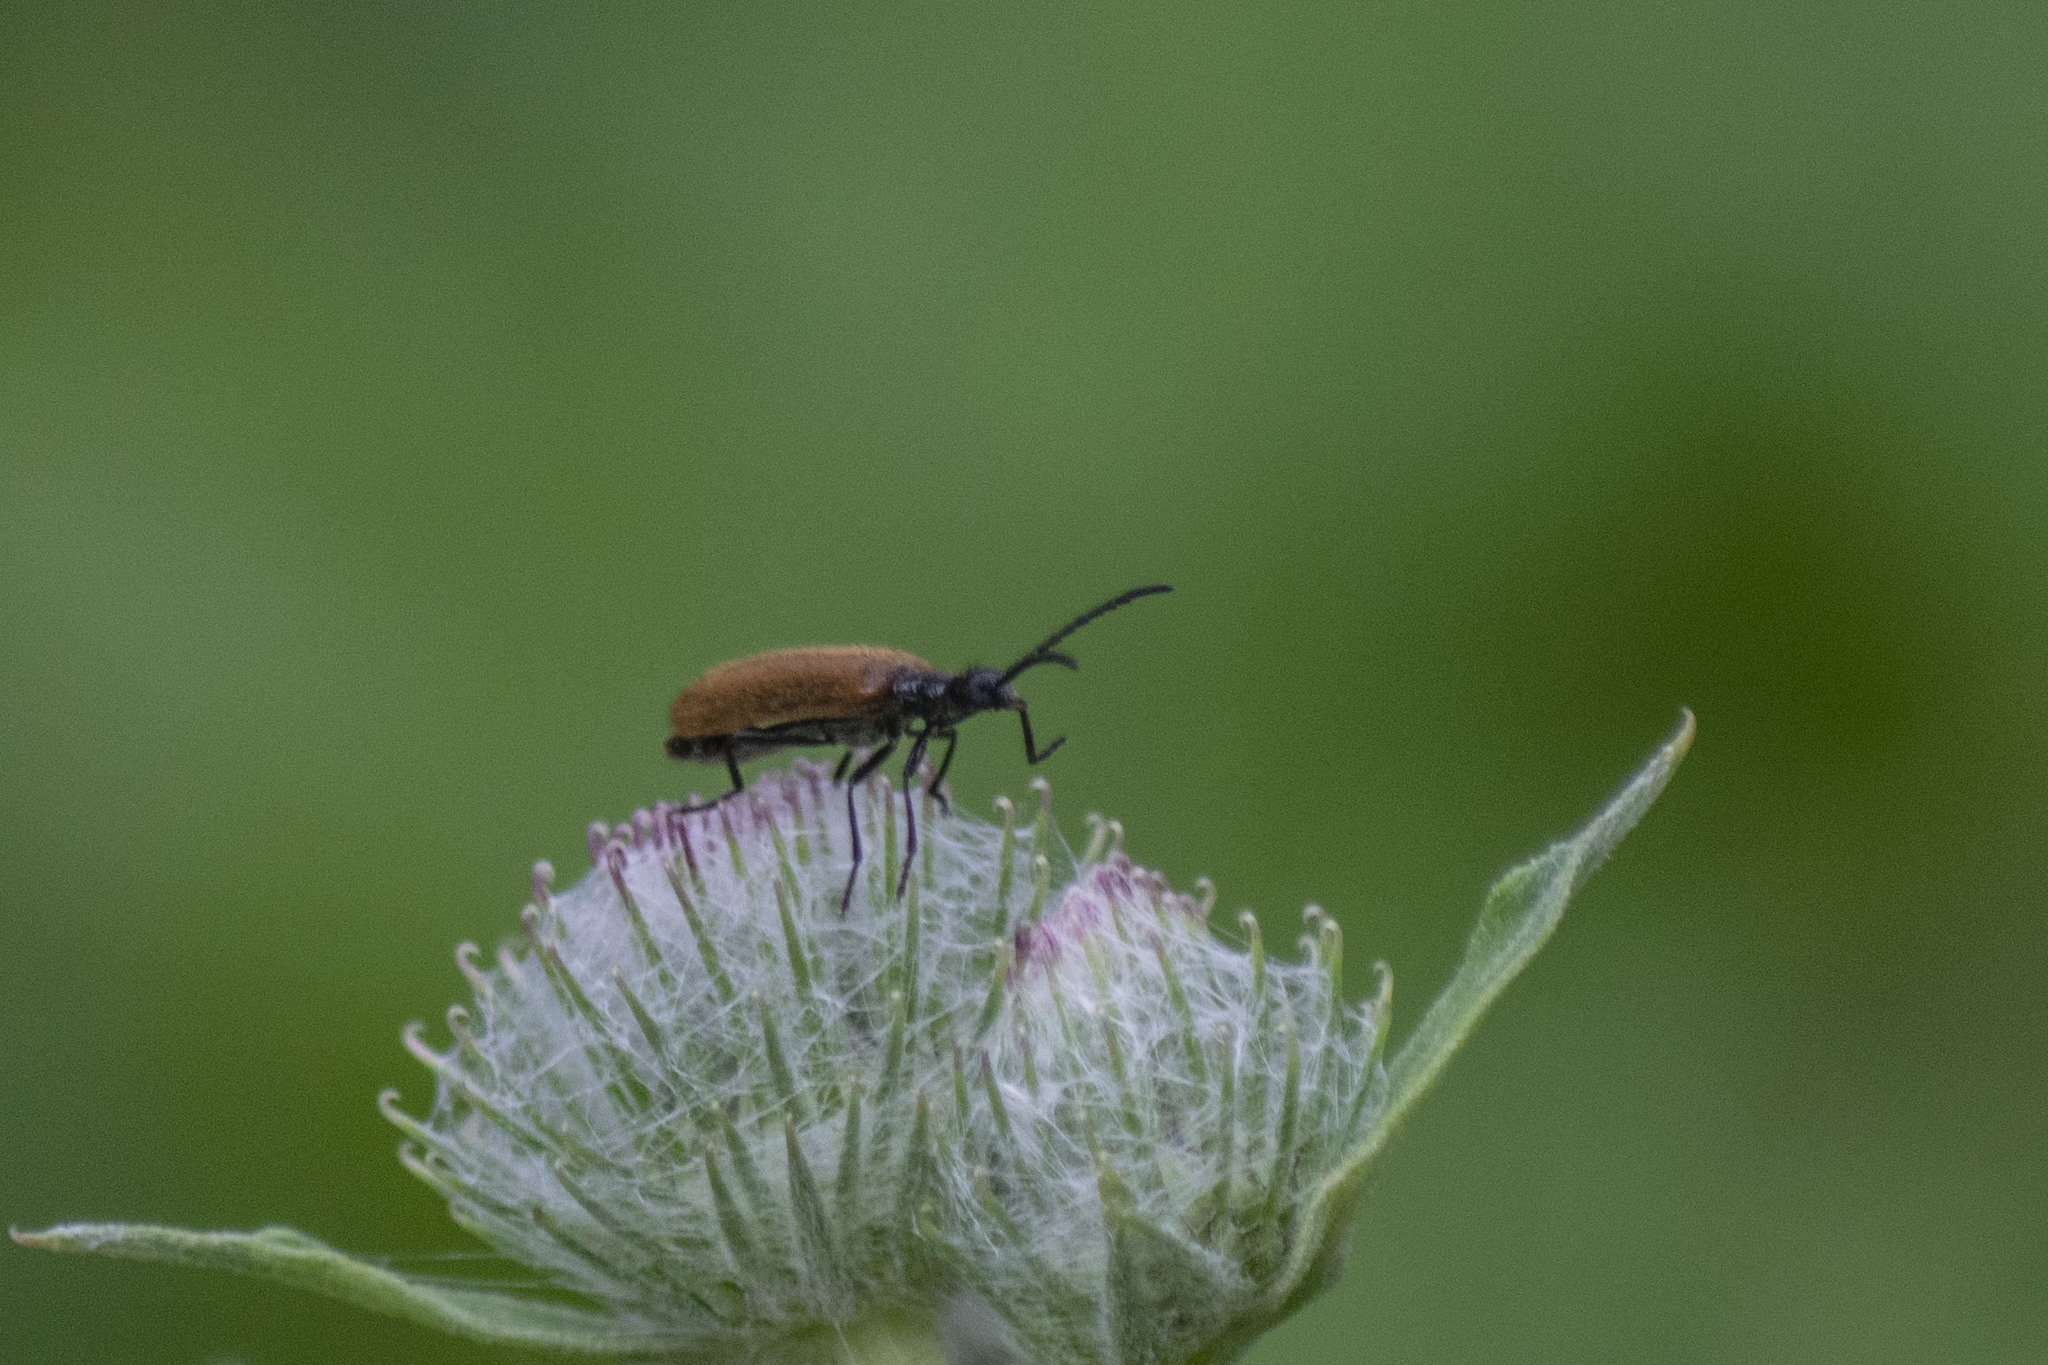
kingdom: Animalia
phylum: Arthropoda
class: Insecta
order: Coleoptera
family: Tenebrionidae
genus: Lagria
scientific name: Lagria hirta
